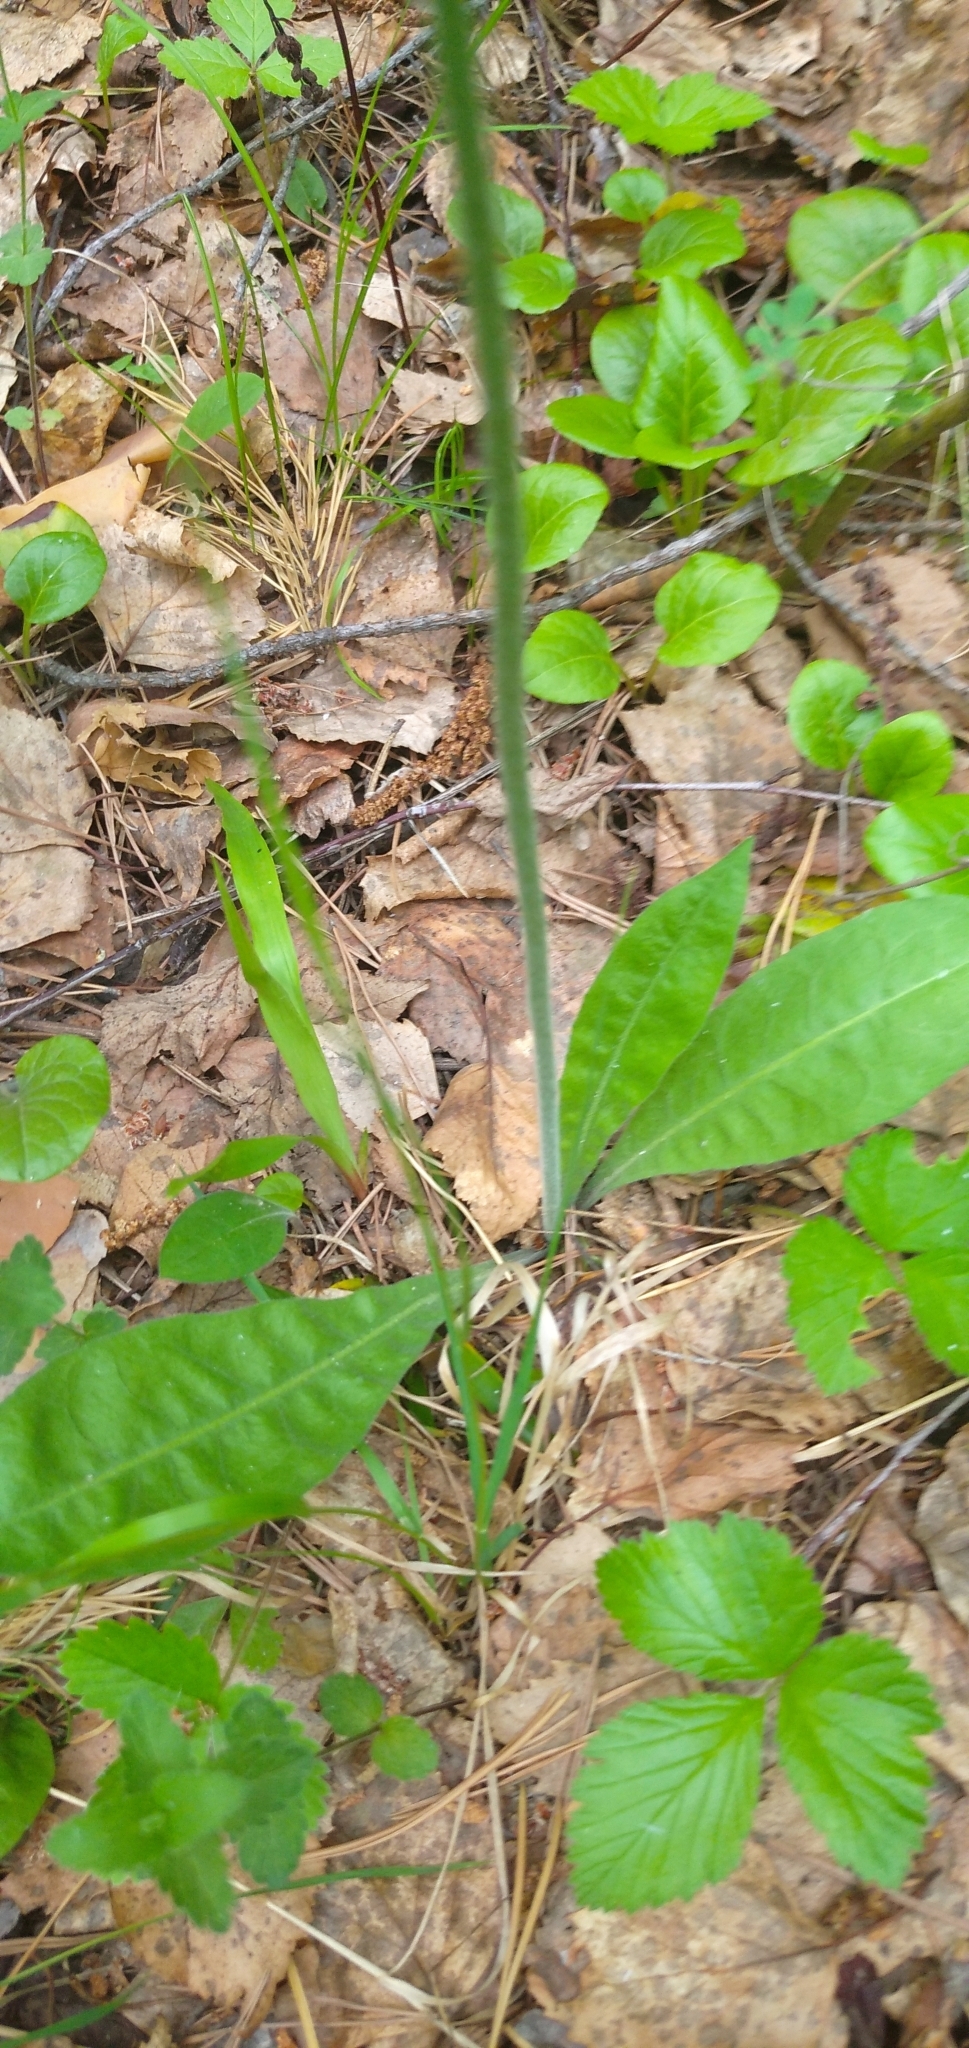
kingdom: Plantae
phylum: Tracheophyta
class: Magnoliopsida
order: Asterales
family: Asteraceae
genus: Crepis
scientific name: Crepis praemorsa
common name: Leafless hawk's-beard
